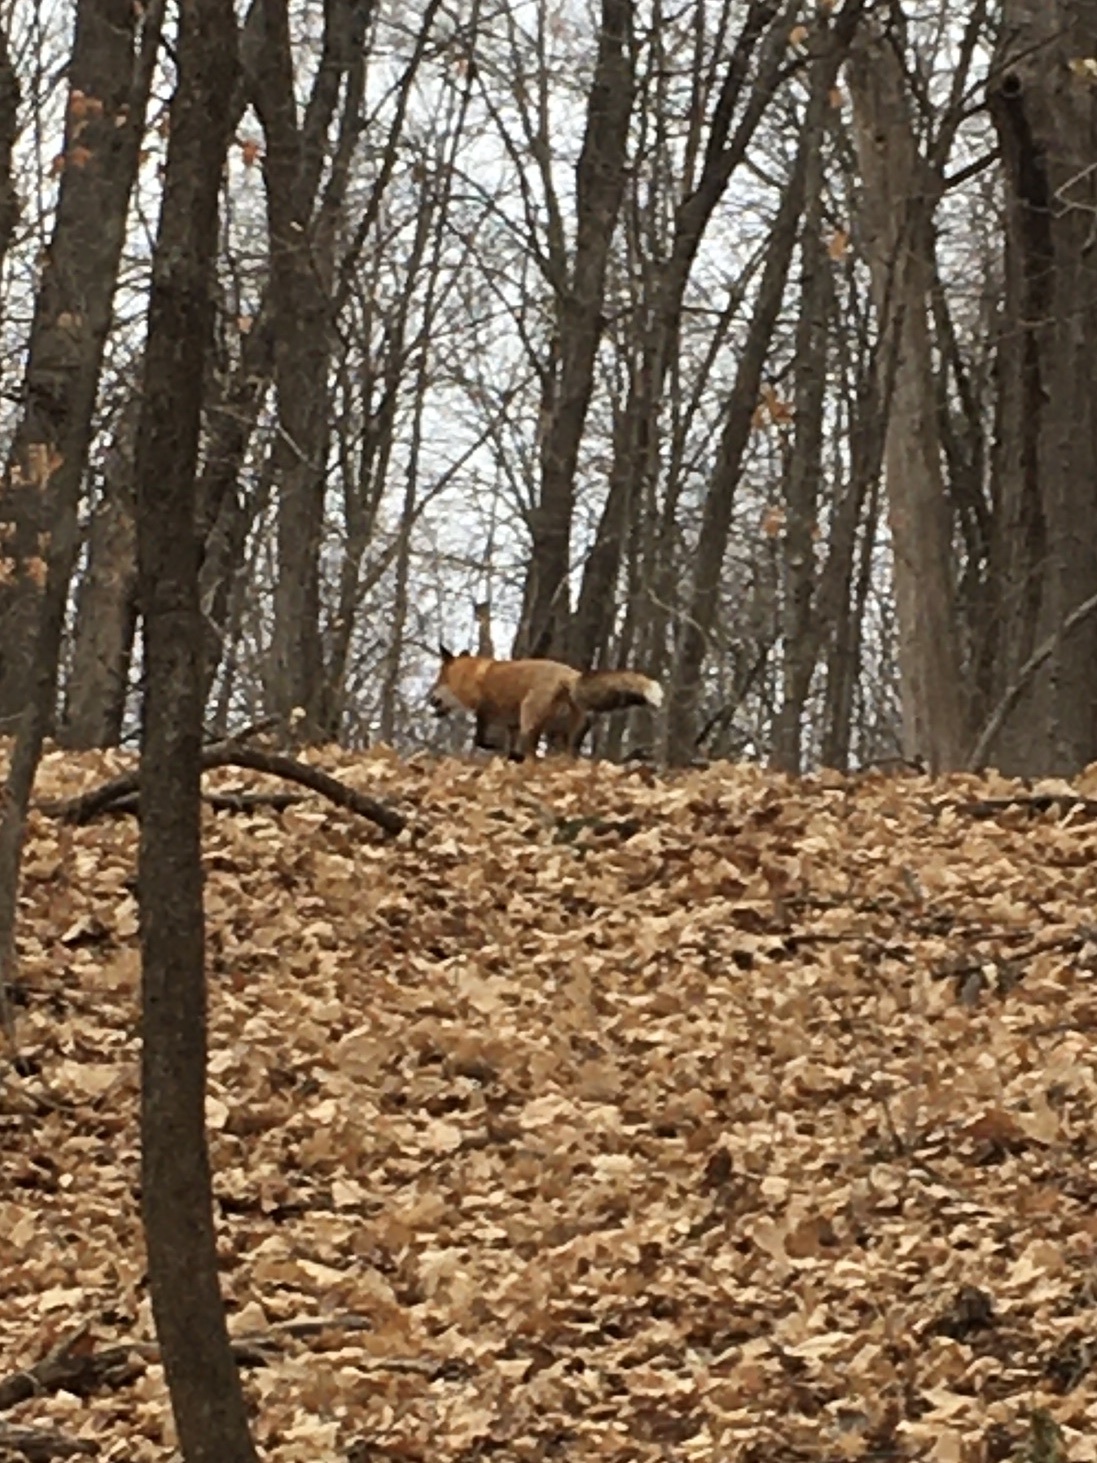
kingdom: Animalia
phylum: Chordata
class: Mammalia
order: Carnivora
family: Canidae
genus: Vulpes
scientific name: Vulpes vulpes
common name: Red fox
